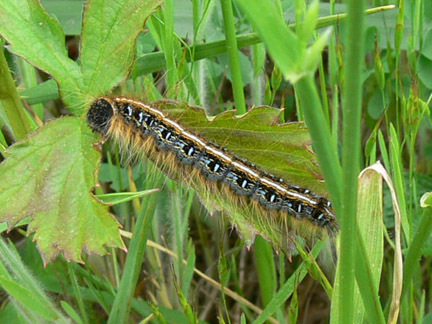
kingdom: Animalia
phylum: Arthropoda
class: Insecta
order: Lepidoptera
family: Lasiocampidae
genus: Malacosoma
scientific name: Malacosoma americana
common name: Eastern tent caterpillar moth
